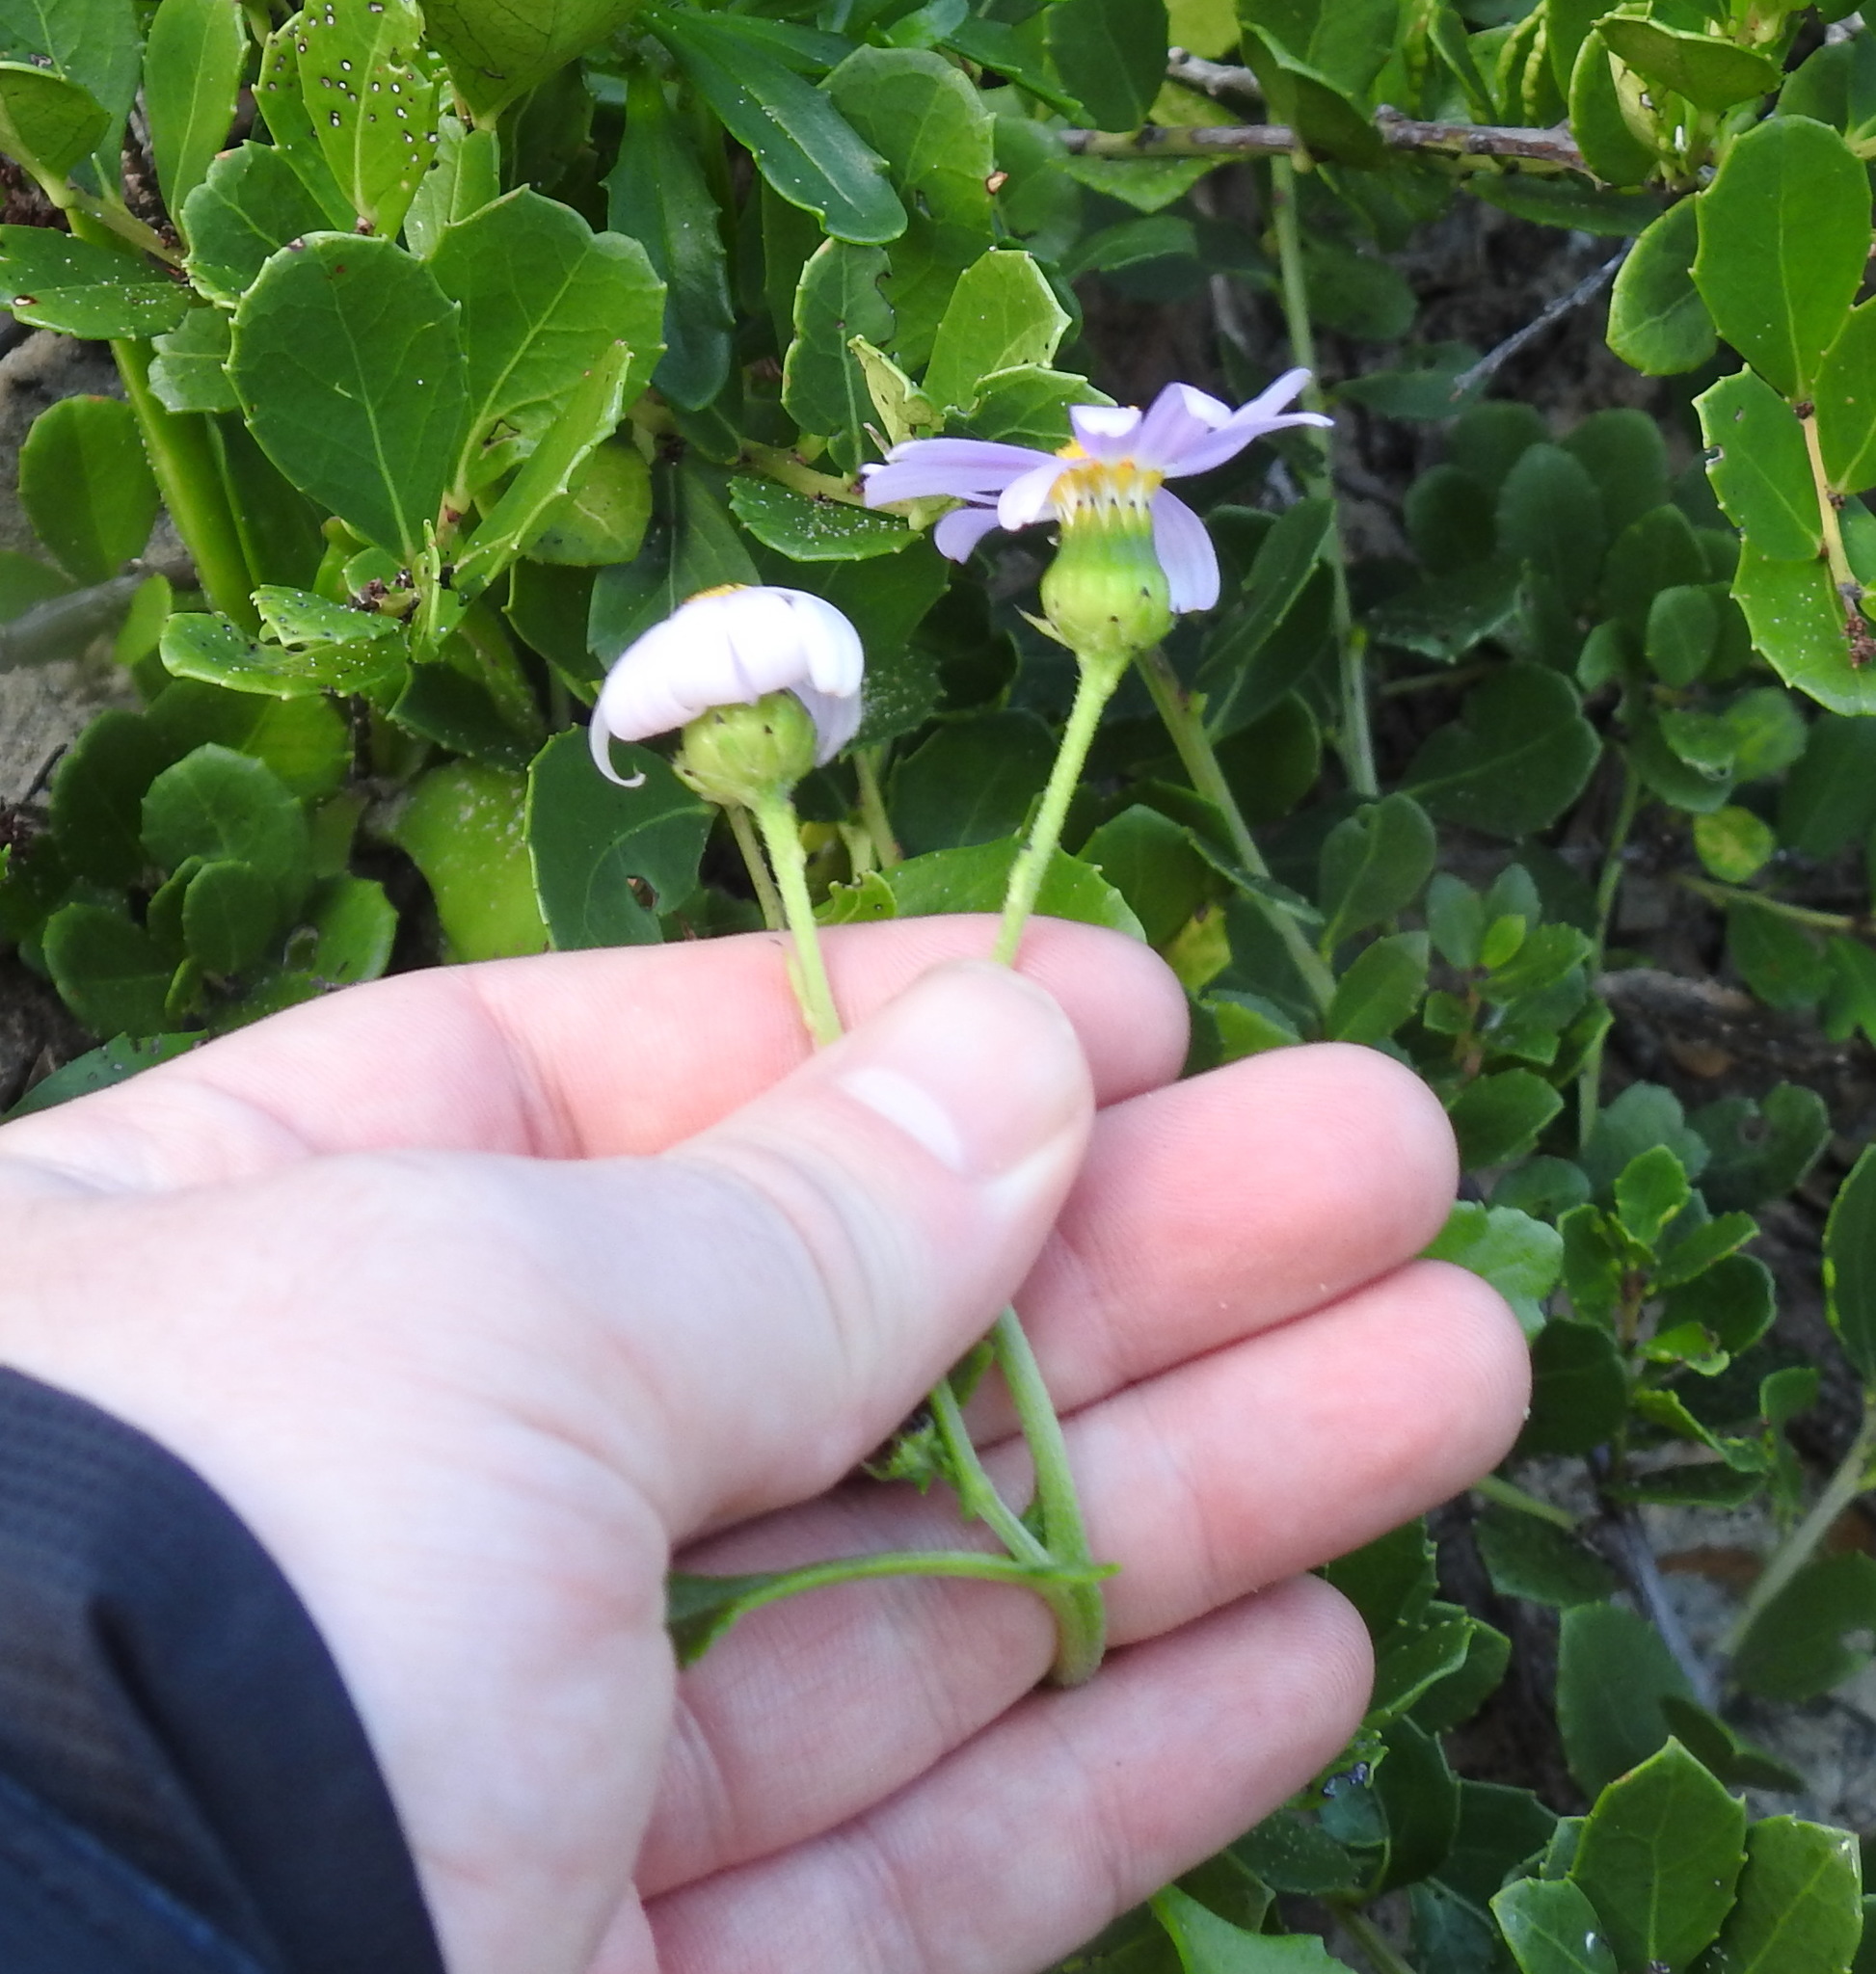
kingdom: Plantae
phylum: Tracheophyta
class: Magnoliopsida
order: Asterales
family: Asteraceae
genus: Senecio
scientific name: Senecio elegans
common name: Purple groundsel
